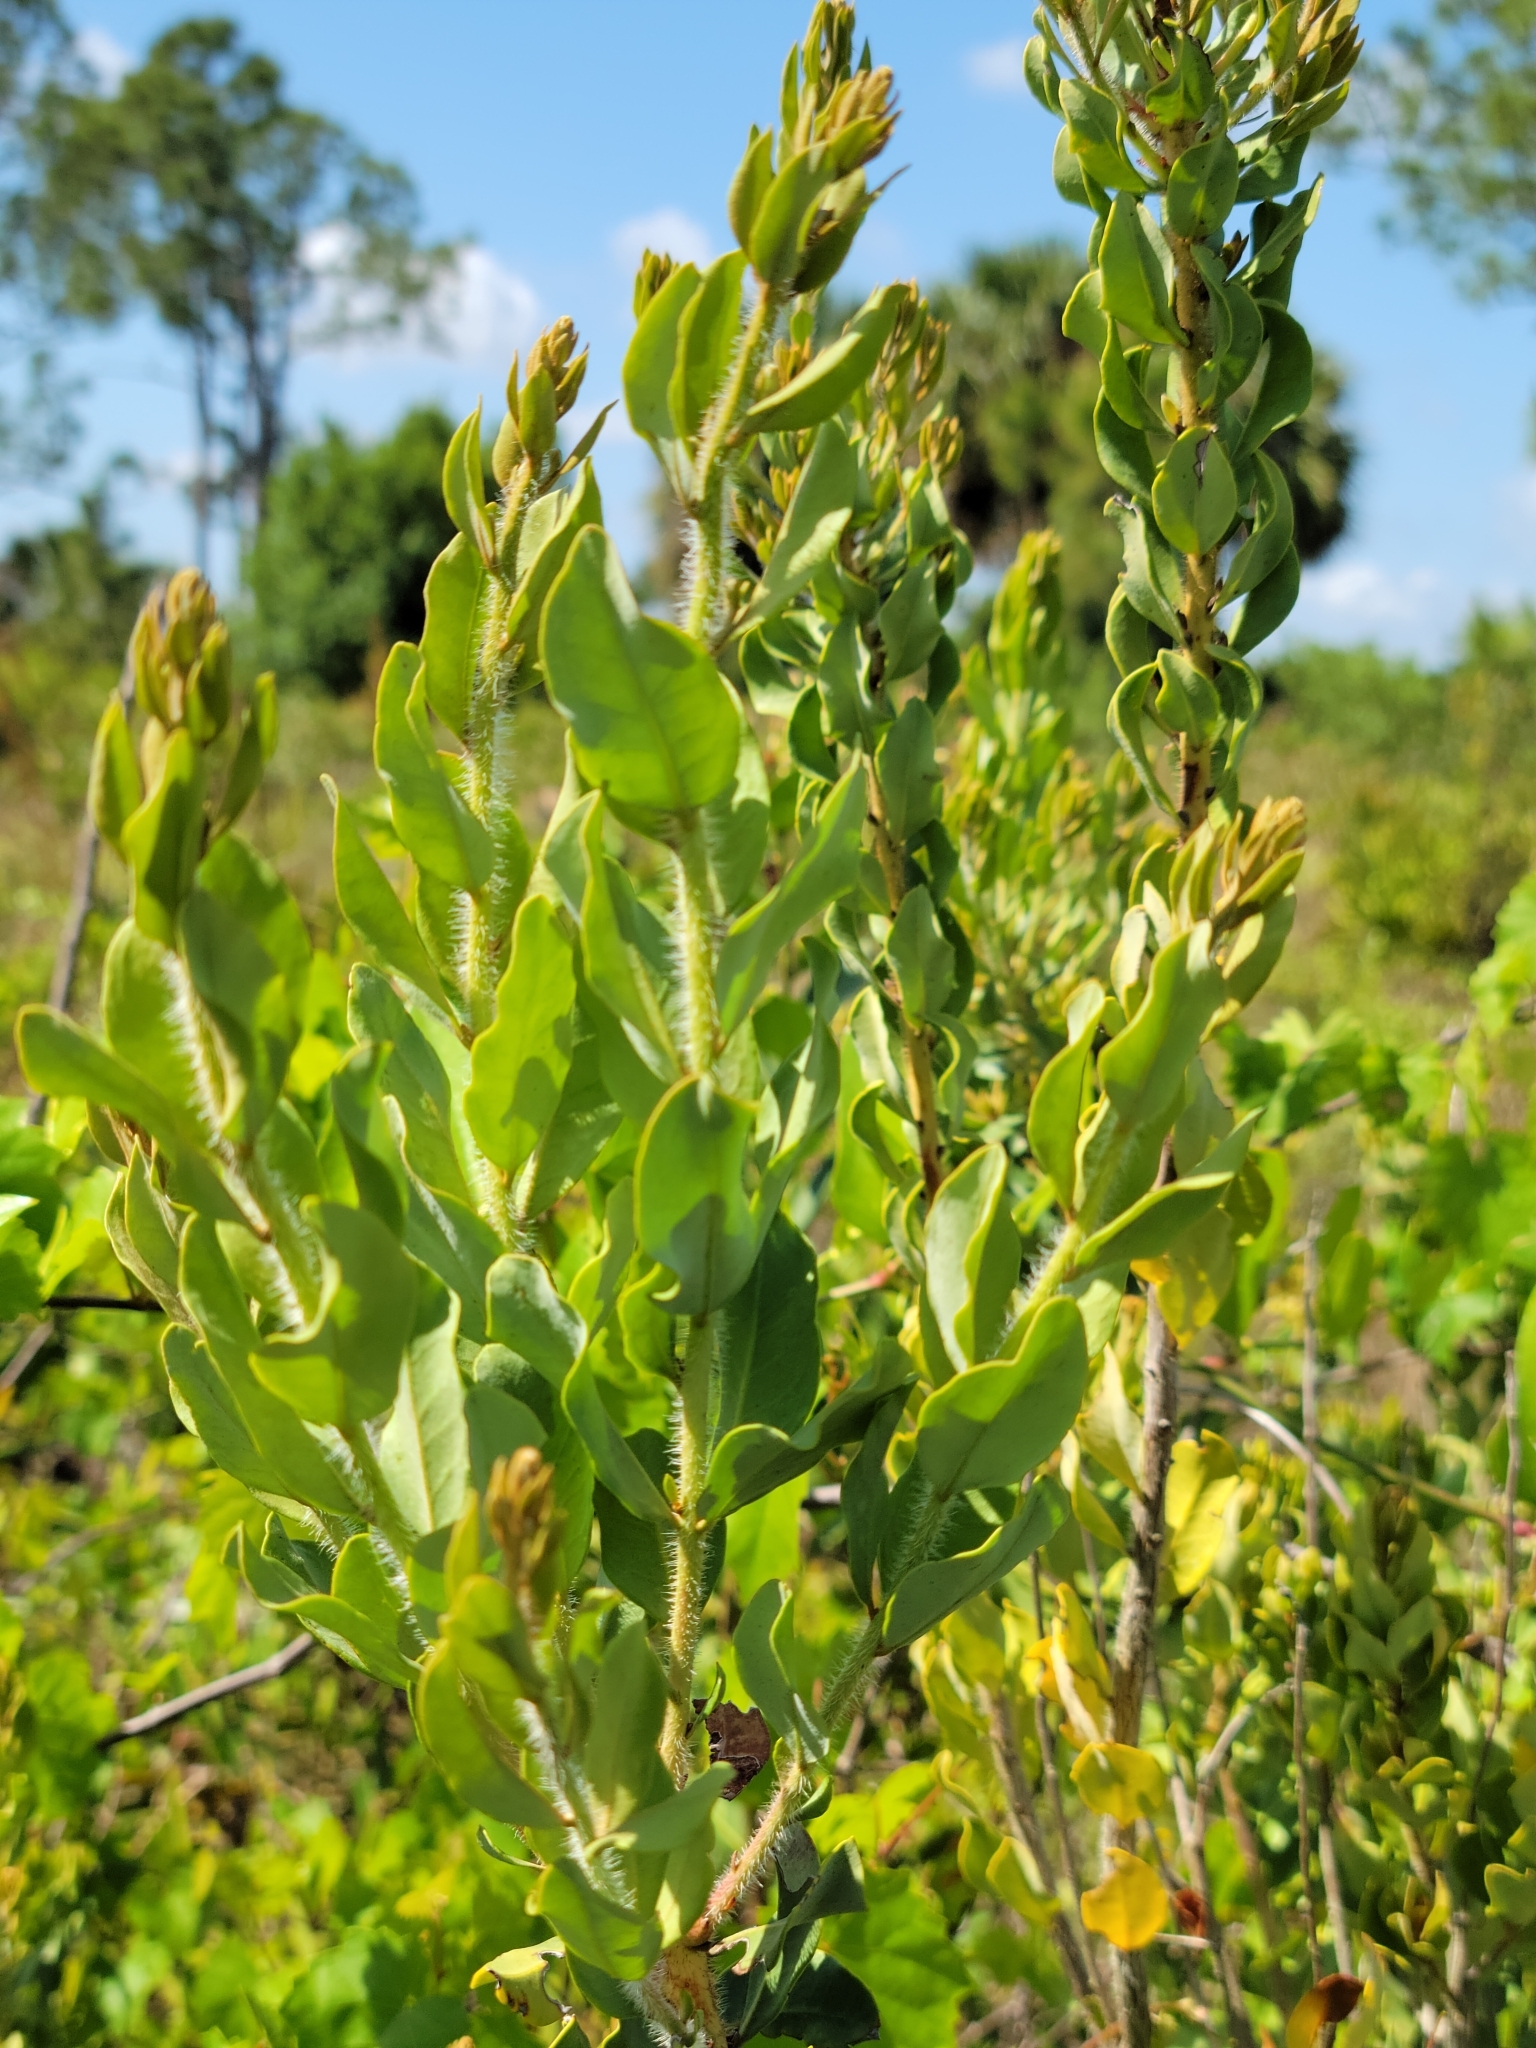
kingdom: Plantae
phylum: Tracheophyta
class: Magnoliopsida
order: Ericales
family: Ericaceae
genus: Bejaria
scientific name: Bejaria racemosa
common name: Tarflower
